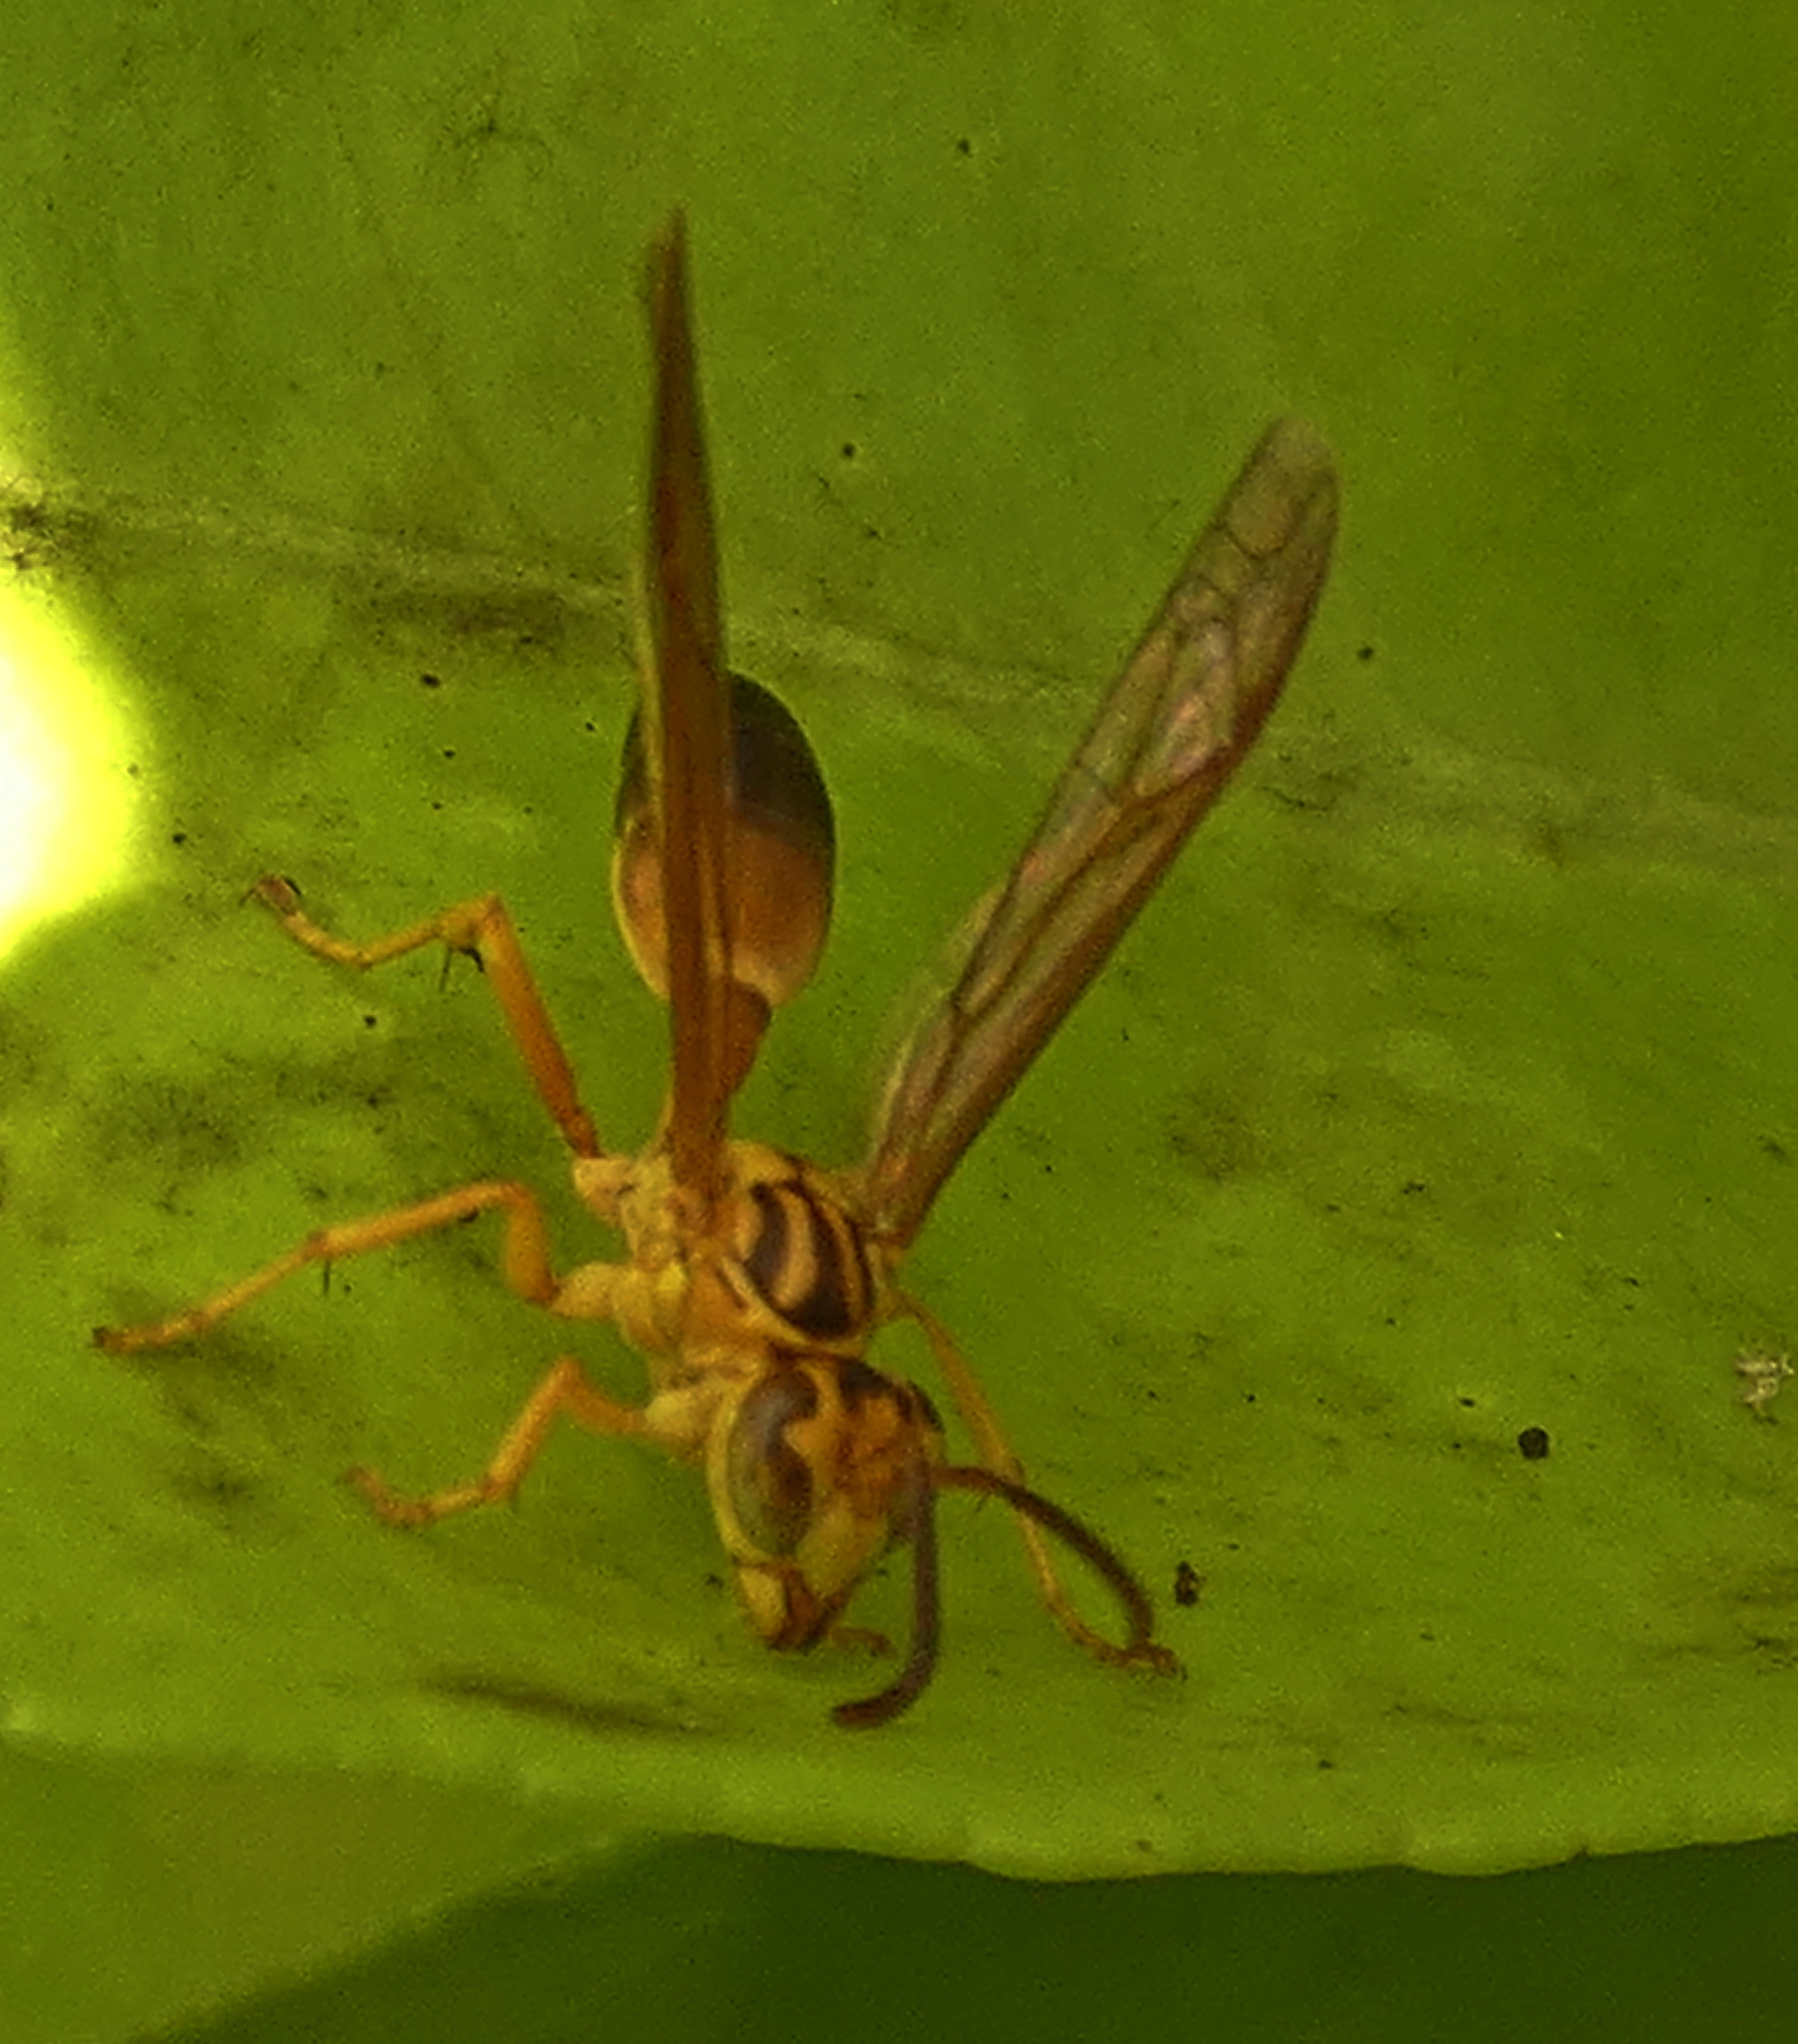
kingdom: Animalia
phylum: Arthropoda
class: Insecta
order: Hymenoptera
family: Vespidae
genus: Agelaia
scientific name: Agelaia pallipes
